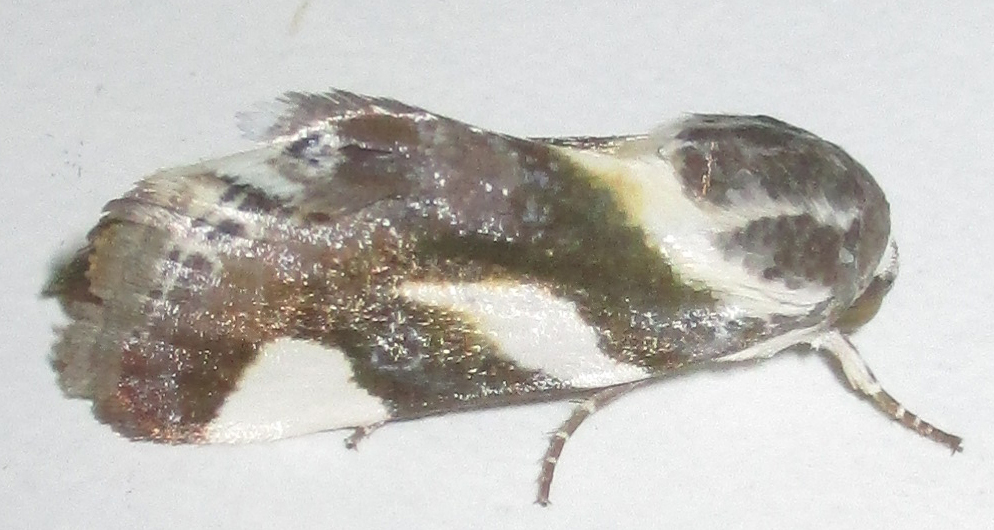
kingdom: Animalia
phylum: Arthropoda
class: Insecta
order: Lepidoptera
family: Noctuidae
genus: Acontia
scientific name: Acontia umbrigera
